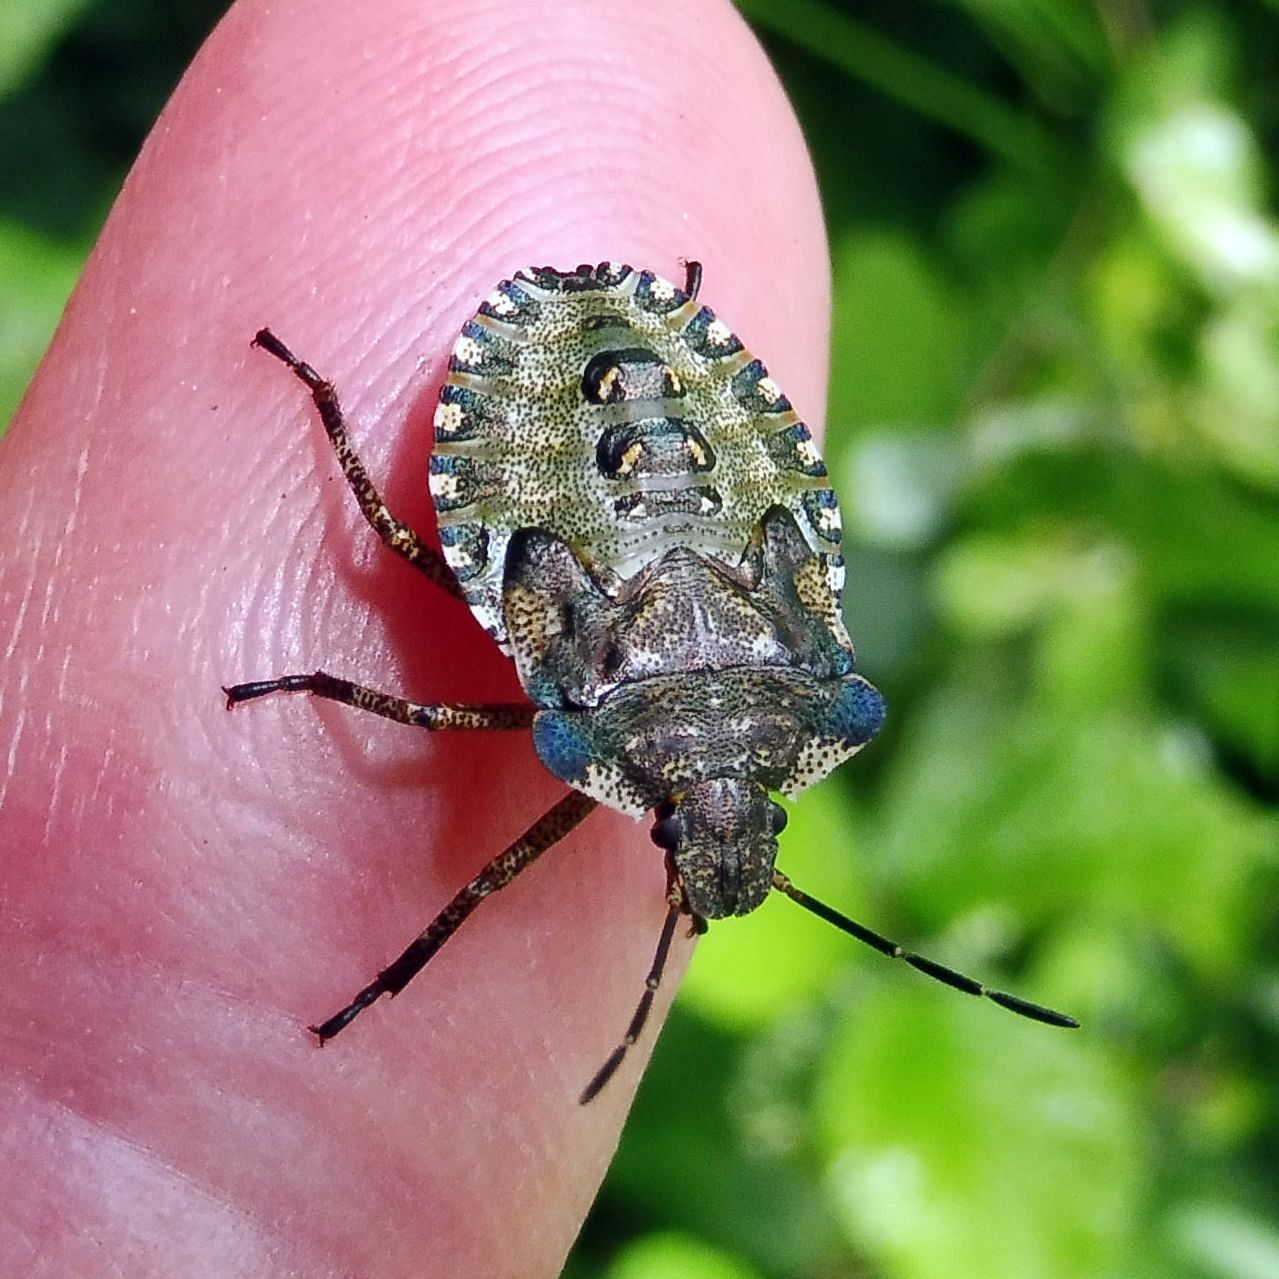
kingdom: Animalia
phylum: Arthropoda
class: Insecta
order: Hemiptera
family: Pentatomidae
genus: Pentatoma
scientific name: Pentatoma rufipes
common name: Forest bug
